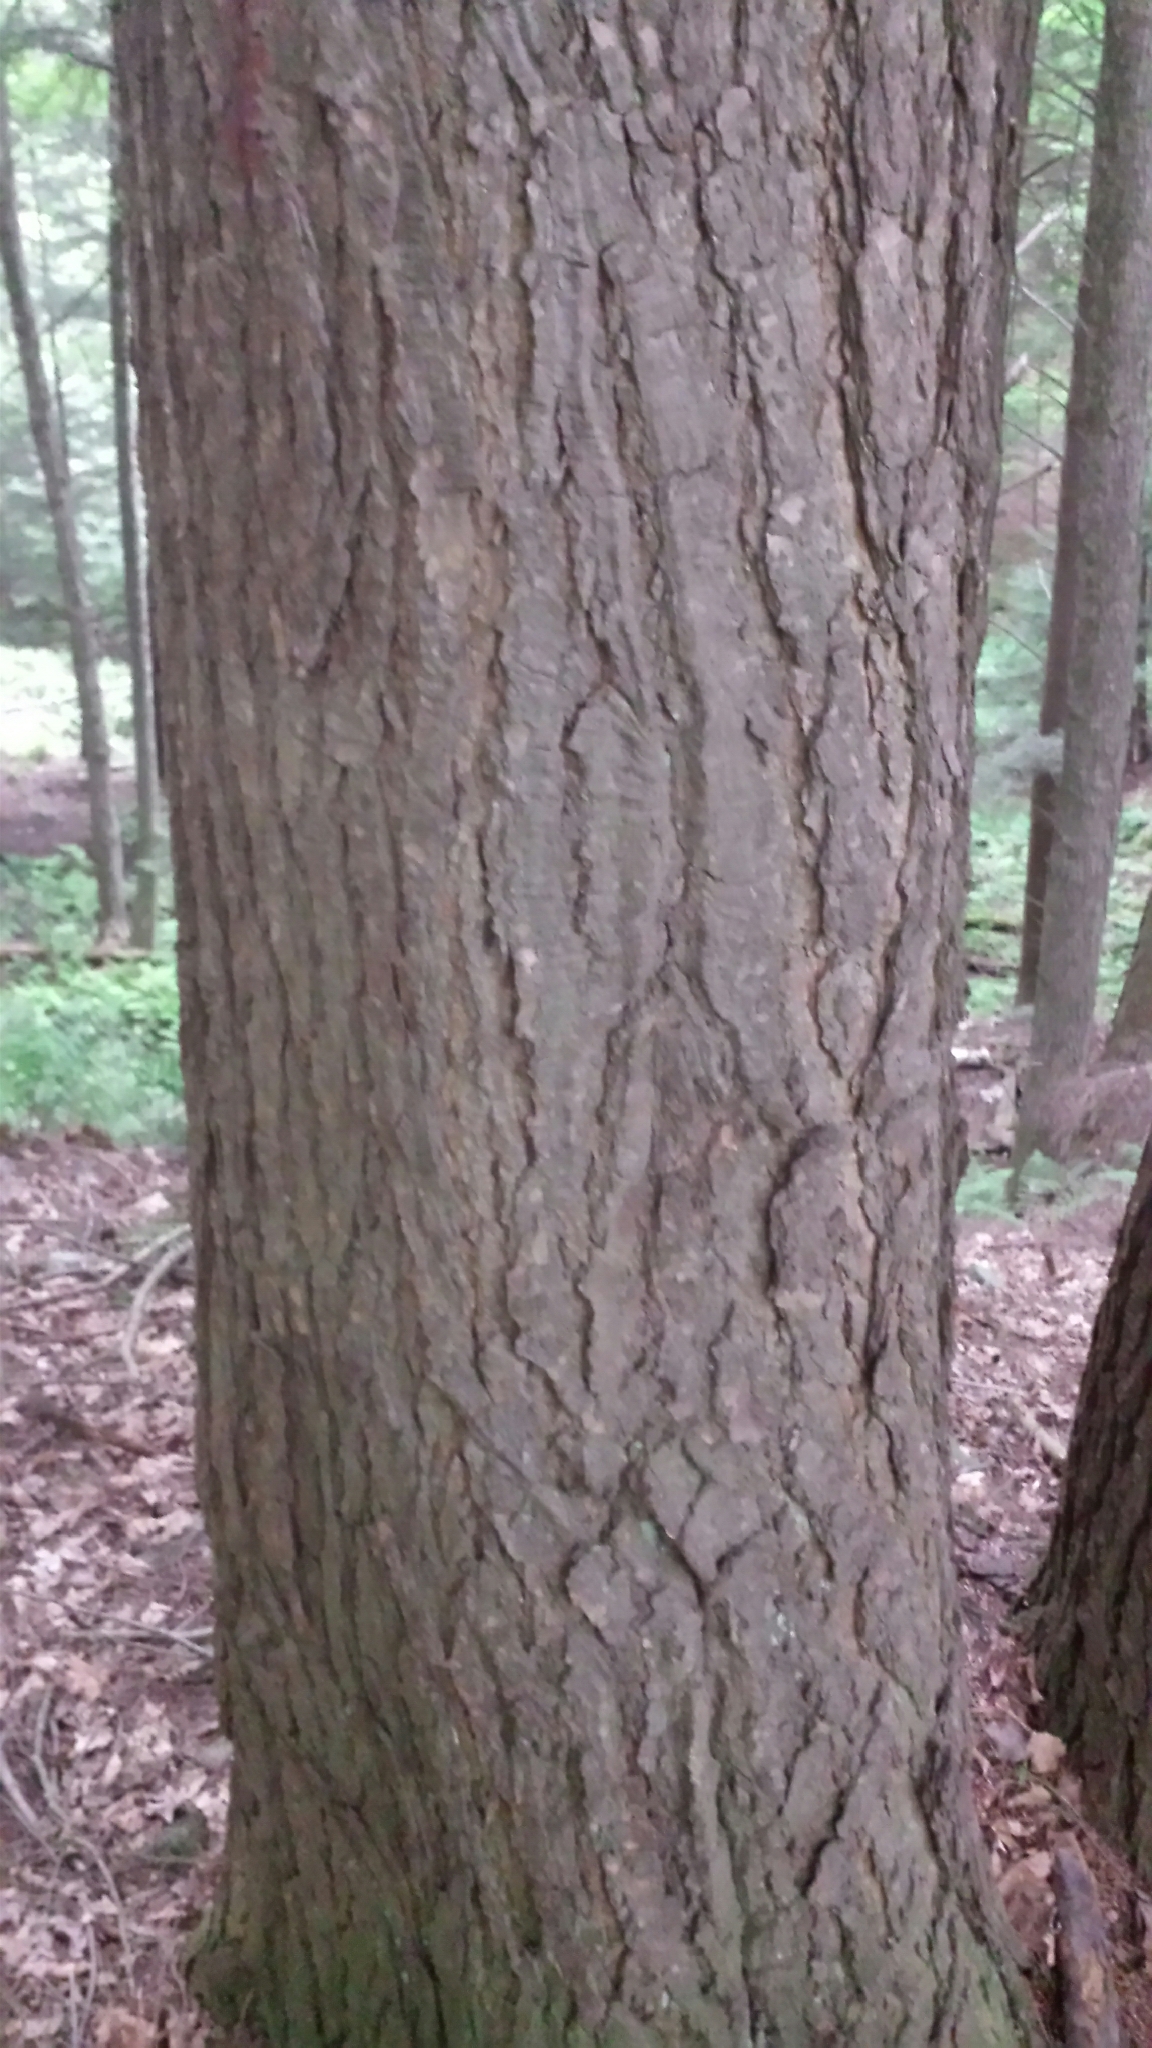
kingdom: Plantae
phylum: Tracheophyta
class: Pinopsida
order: Pinales
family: Pinaceae
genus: Tsuga
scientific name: Tsuga canadensis
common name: Eastern hemlock
